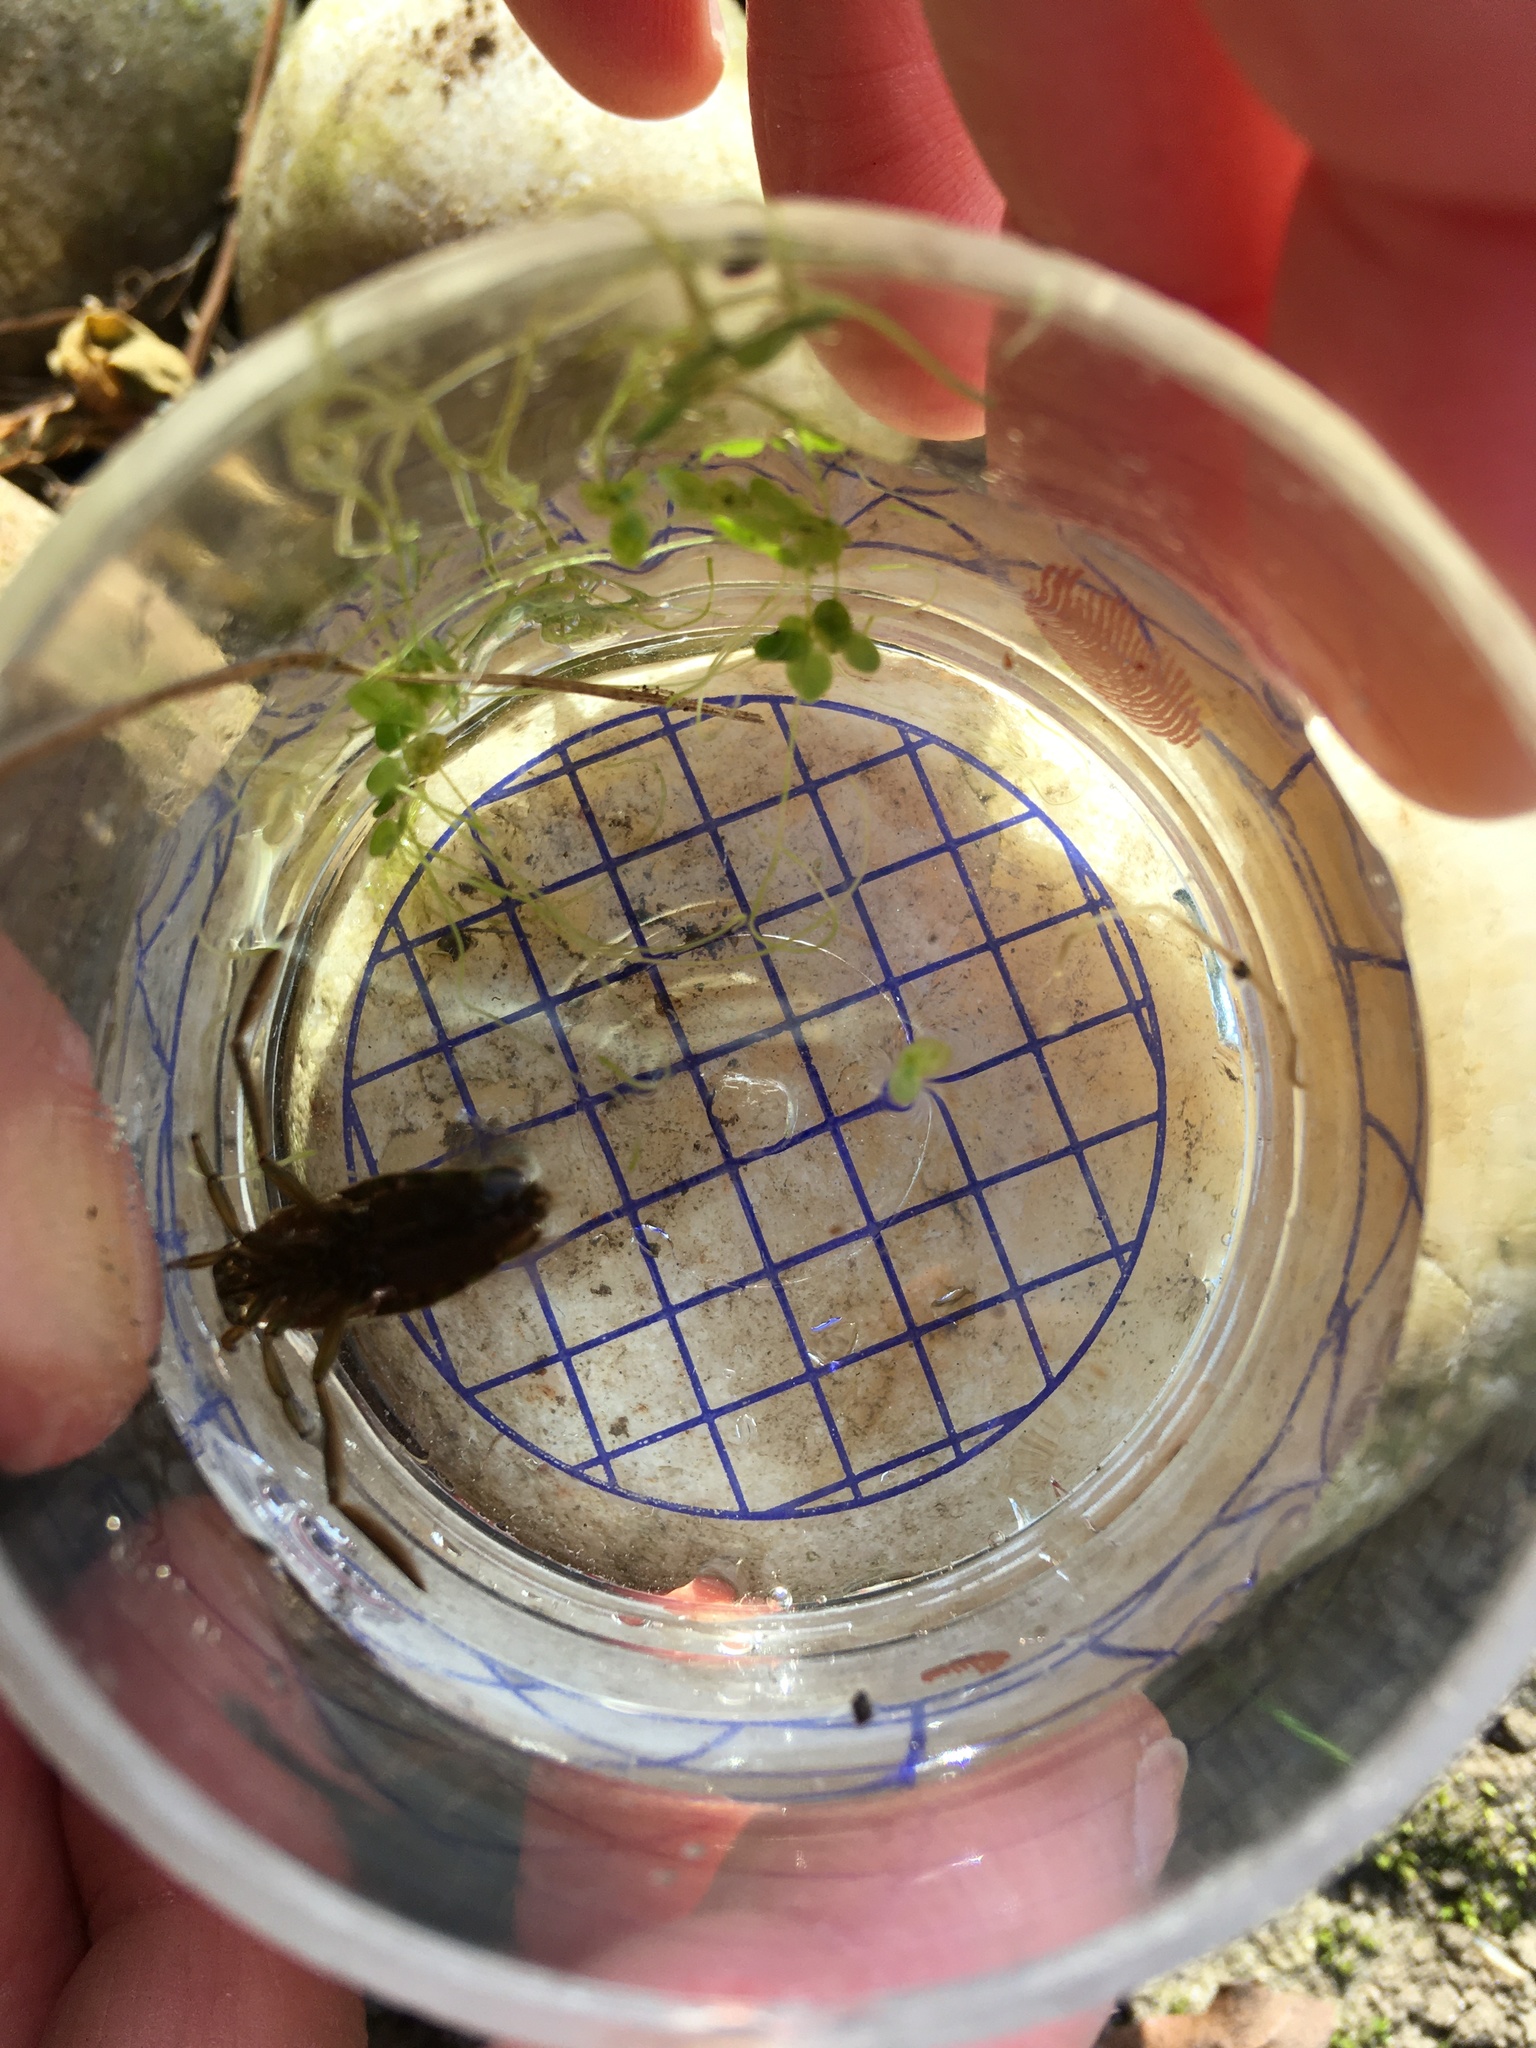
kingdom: Animalia
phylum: Arthropoda
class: Insecta
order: Hemiptera
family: Notonectidae
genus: Notonecta
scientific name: Notonecta
